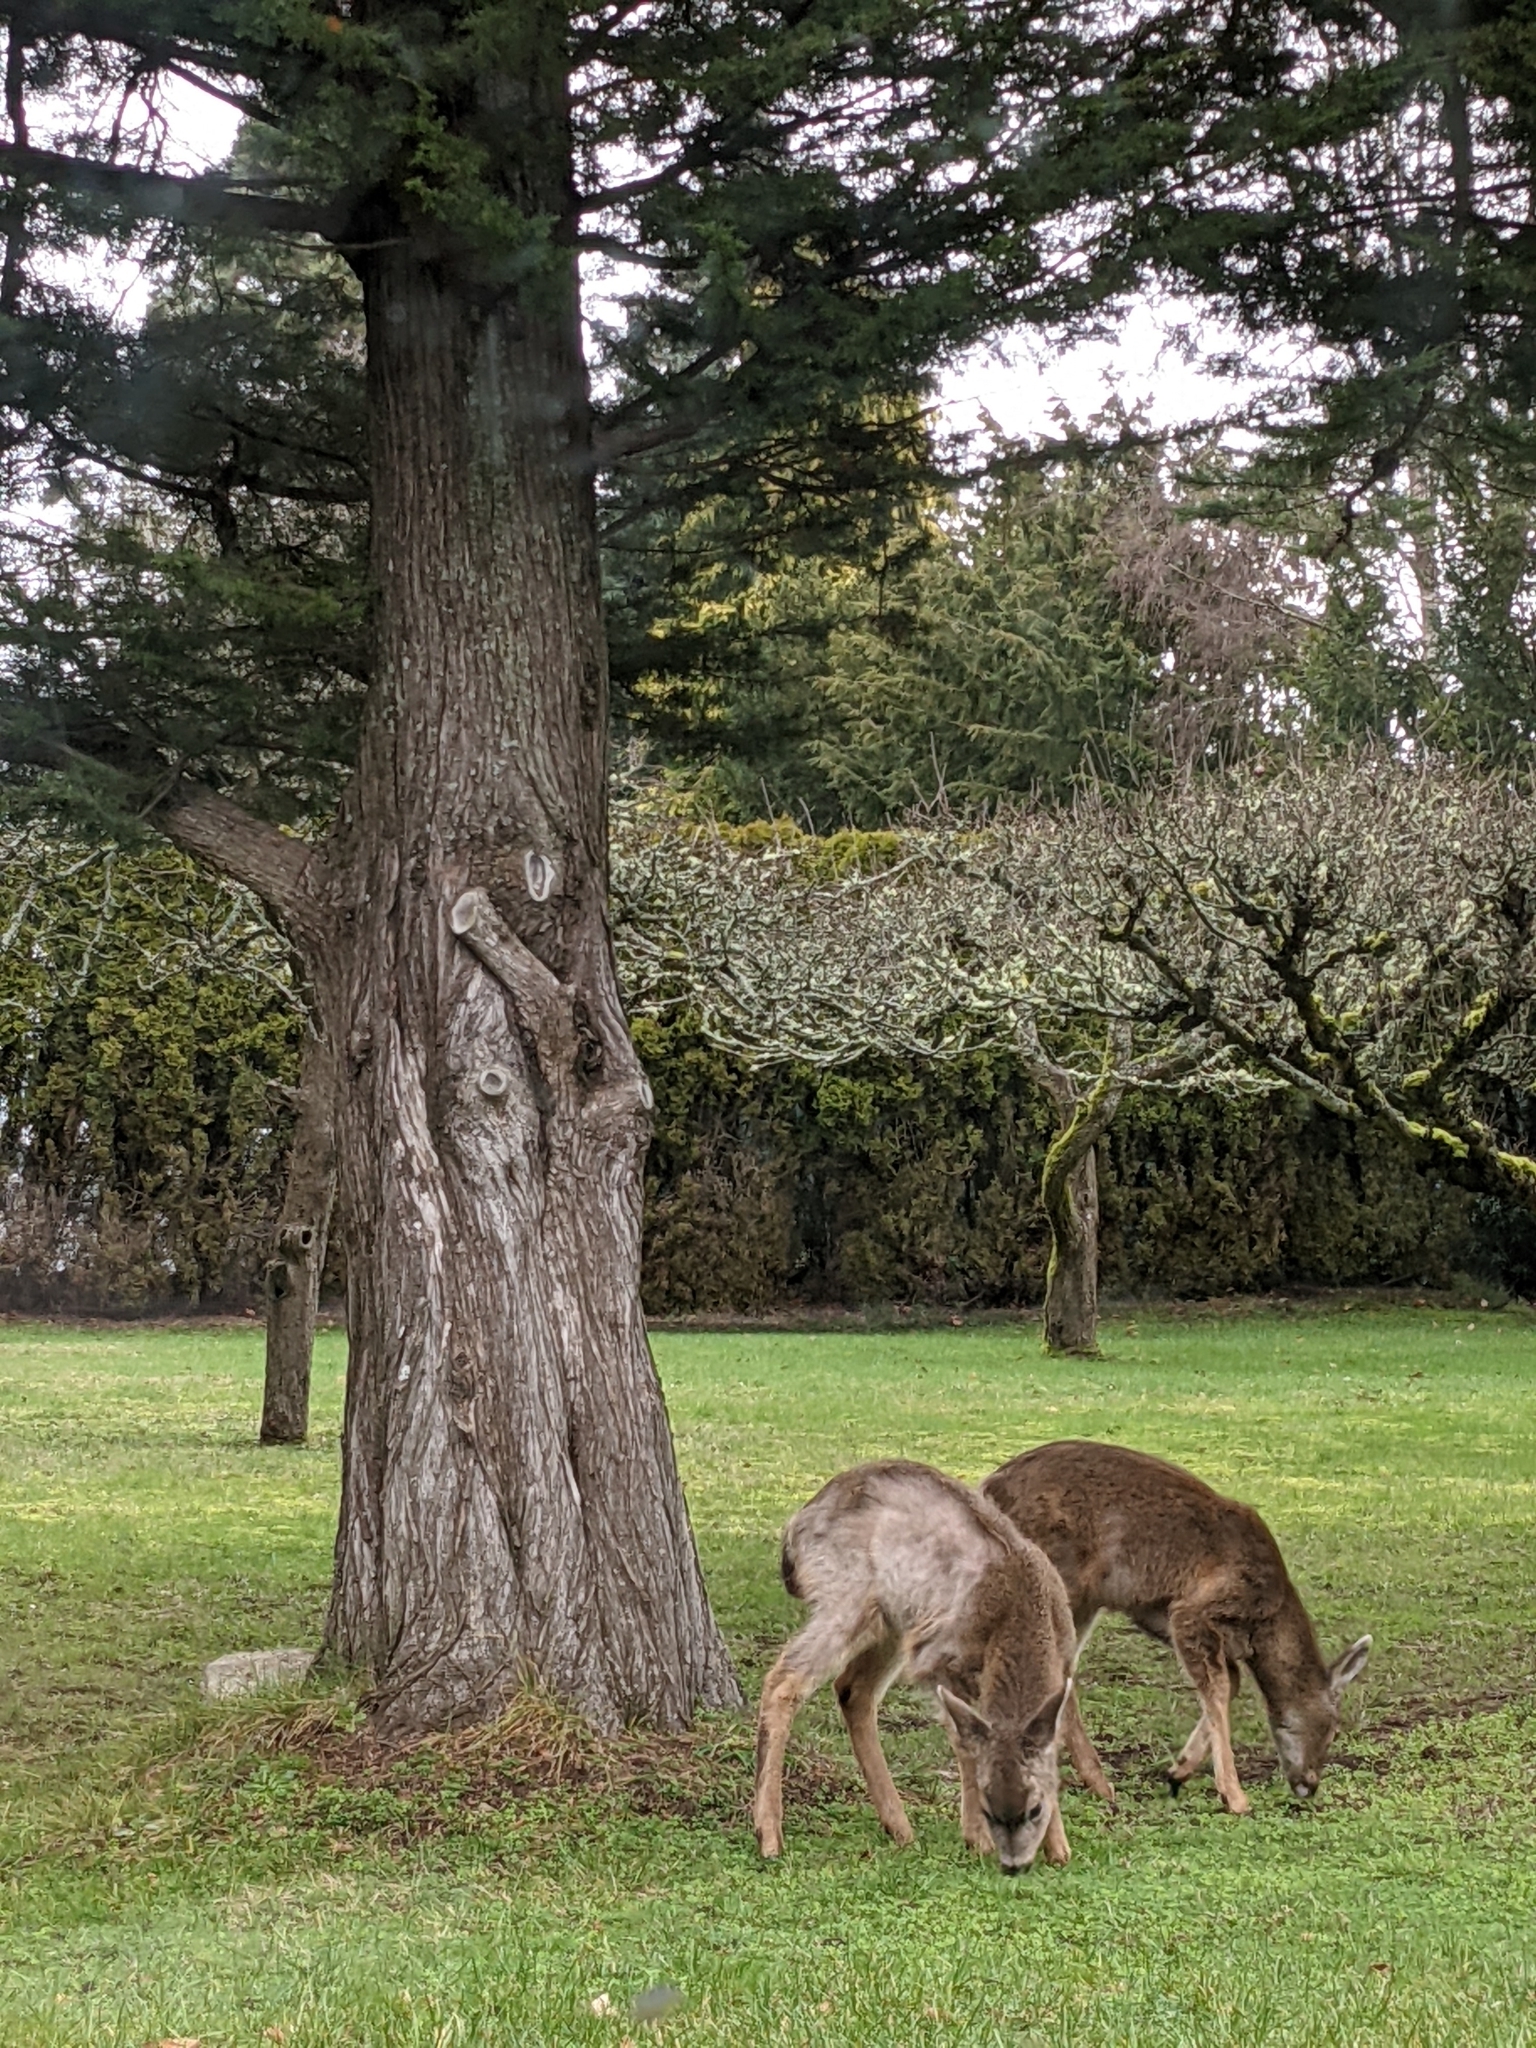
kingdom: Animalia
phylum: Chordata
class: Mammalia
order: Artiodactyla
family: Cervidae
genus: Odocoileus
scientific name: Odocoileus hemionus
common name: Mule deer
